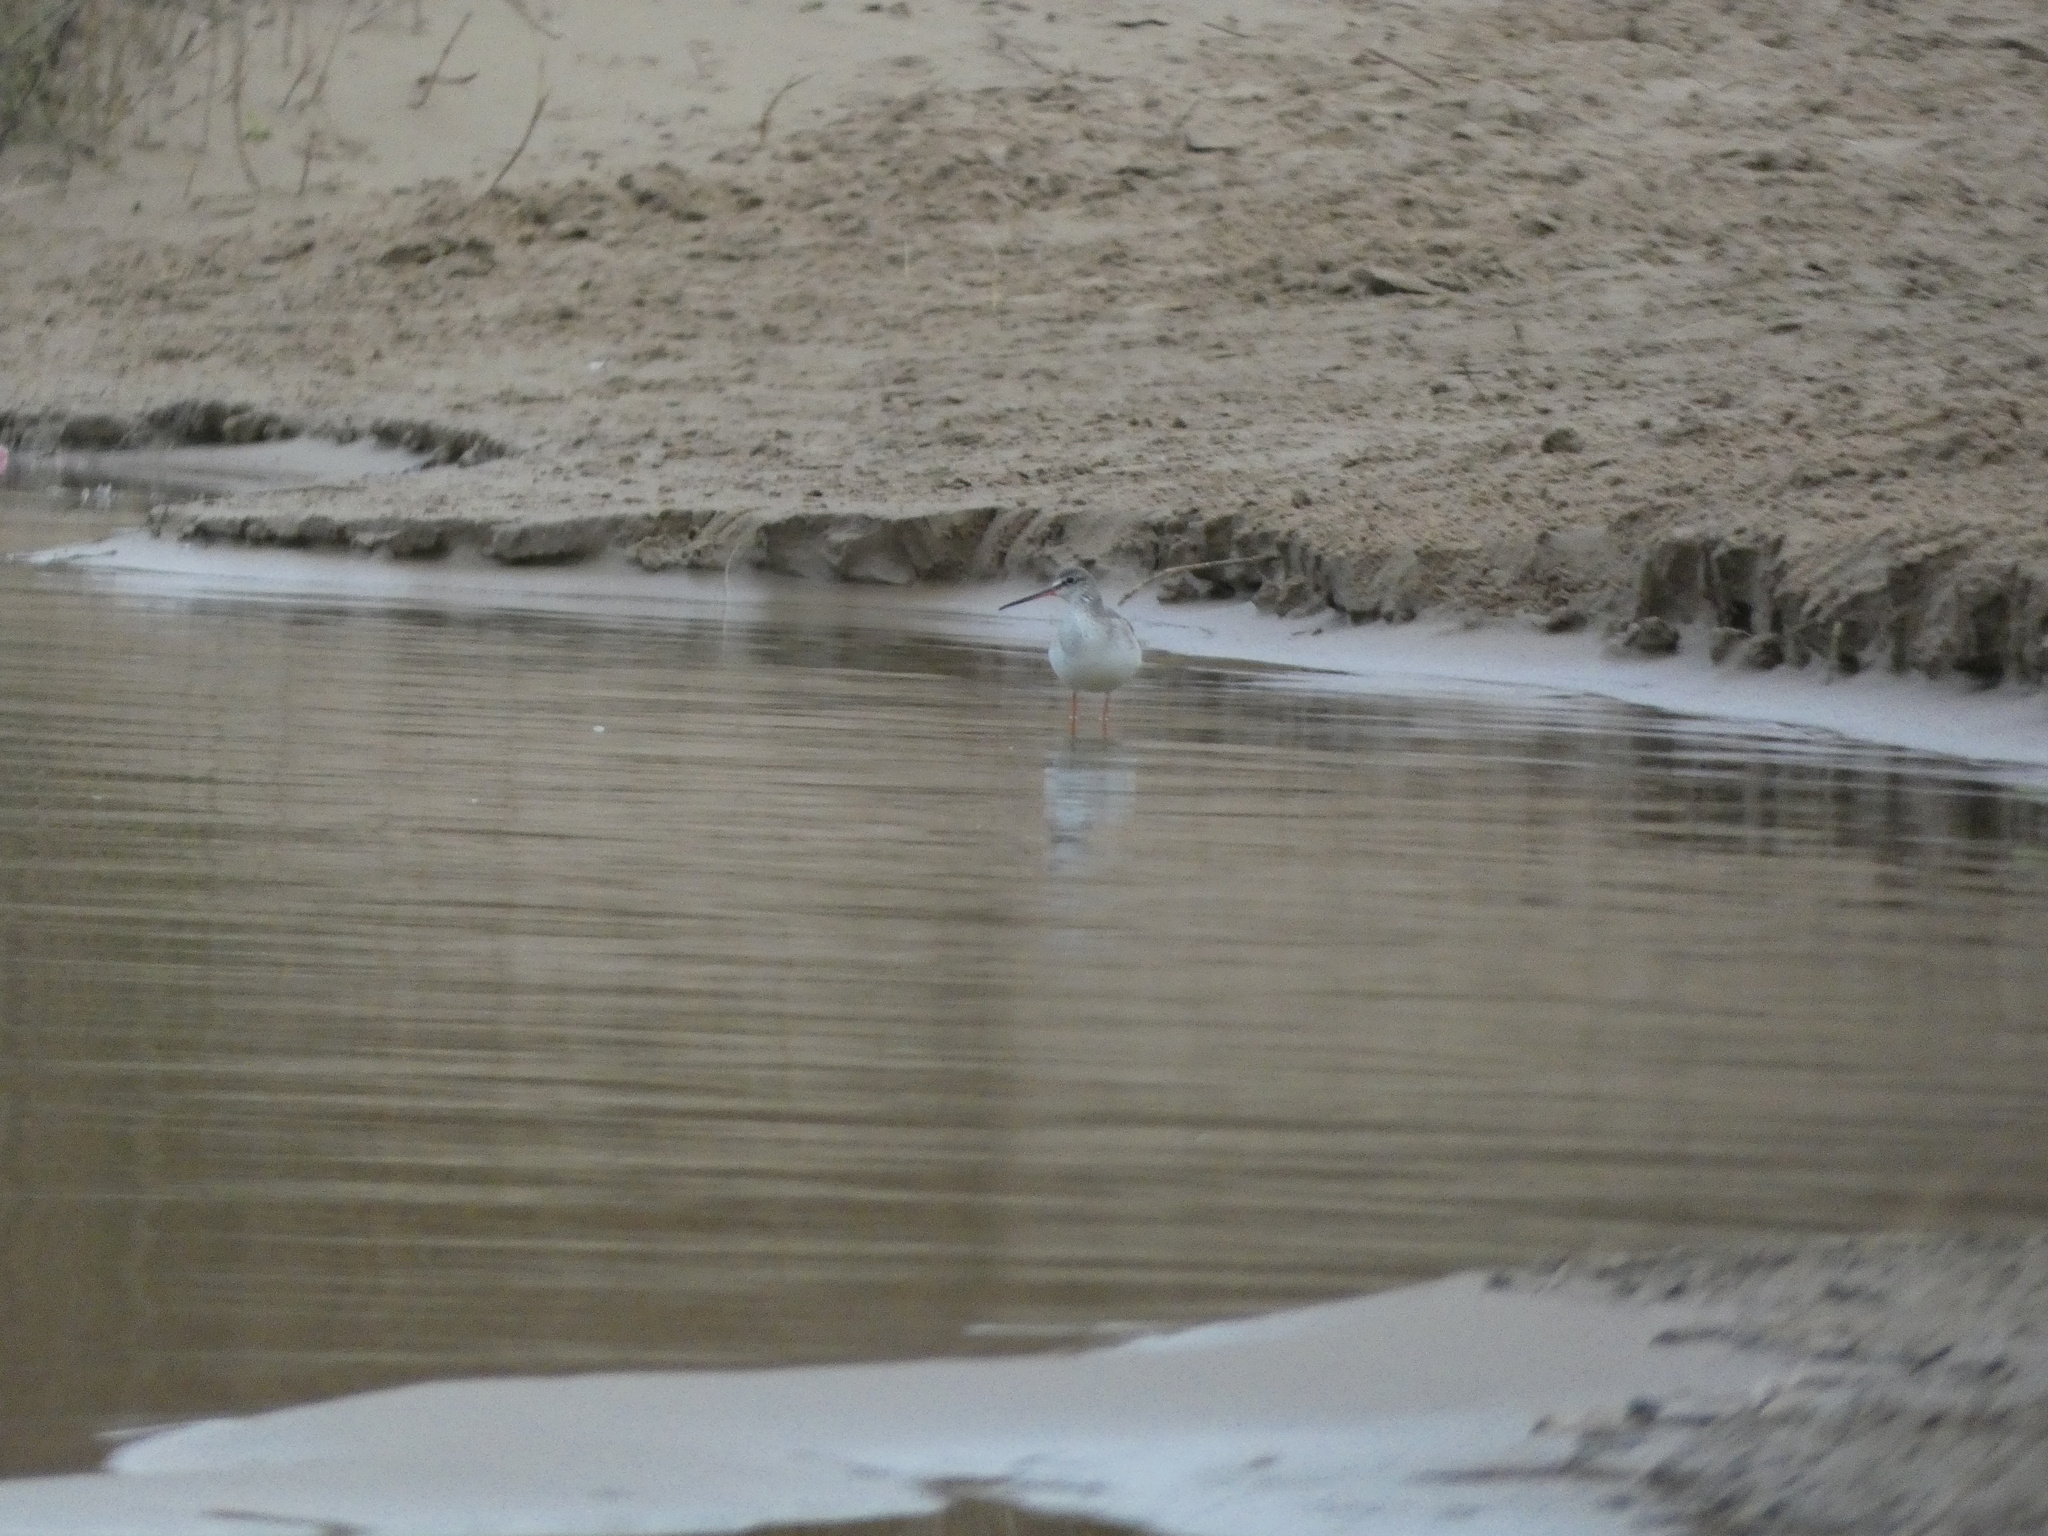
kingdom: Animalia
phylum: Chordata
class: Aves
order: Charadriiformes
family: Scolopacidae
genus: Tringa
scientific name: Tringa erythropus
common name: Spotted redshank
